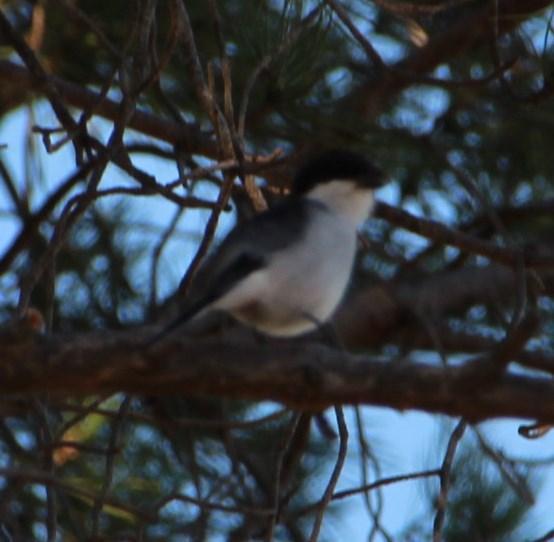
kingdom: Animalia
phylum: Chordata
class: Aves
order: Passeriformes
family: Laniidae
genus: Lanius
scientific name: Lanius collaris
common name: Southern fiscal
